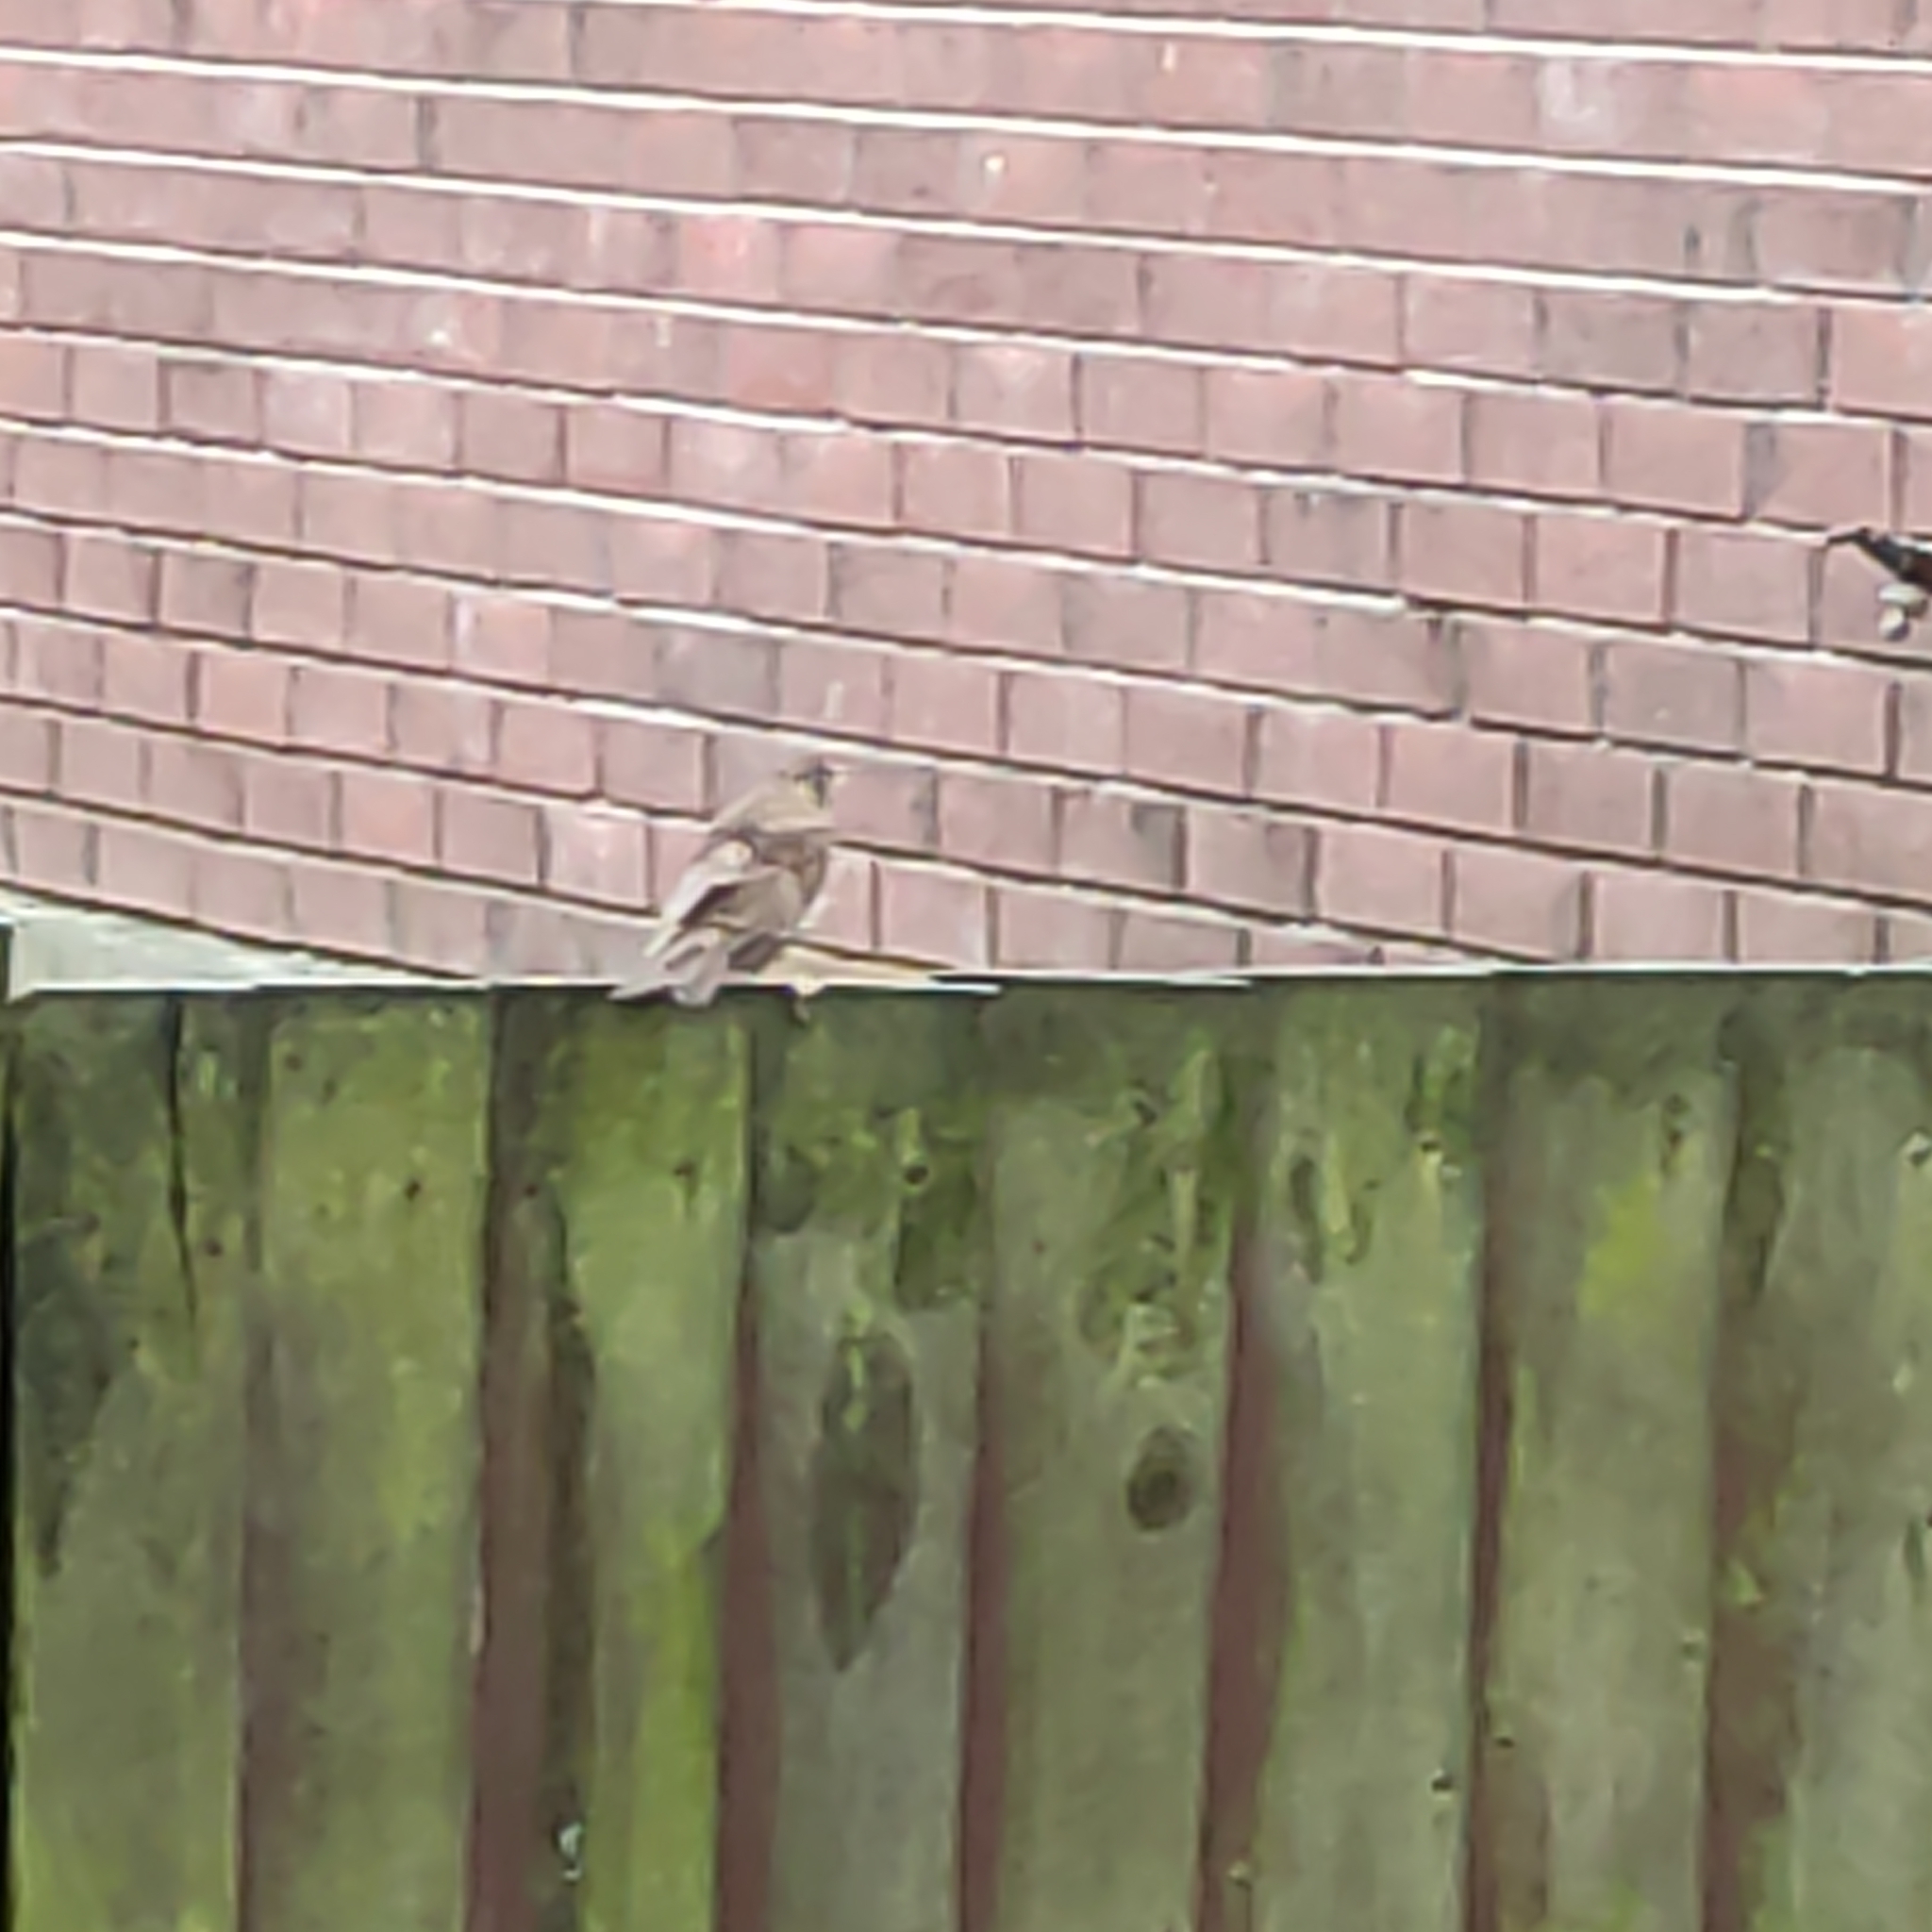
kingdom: Animalia
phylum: Chordata
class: Aves
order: Passeriformes
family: Turdidae
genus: Turdus
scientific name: Turdus philomelos
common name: Song thrush
